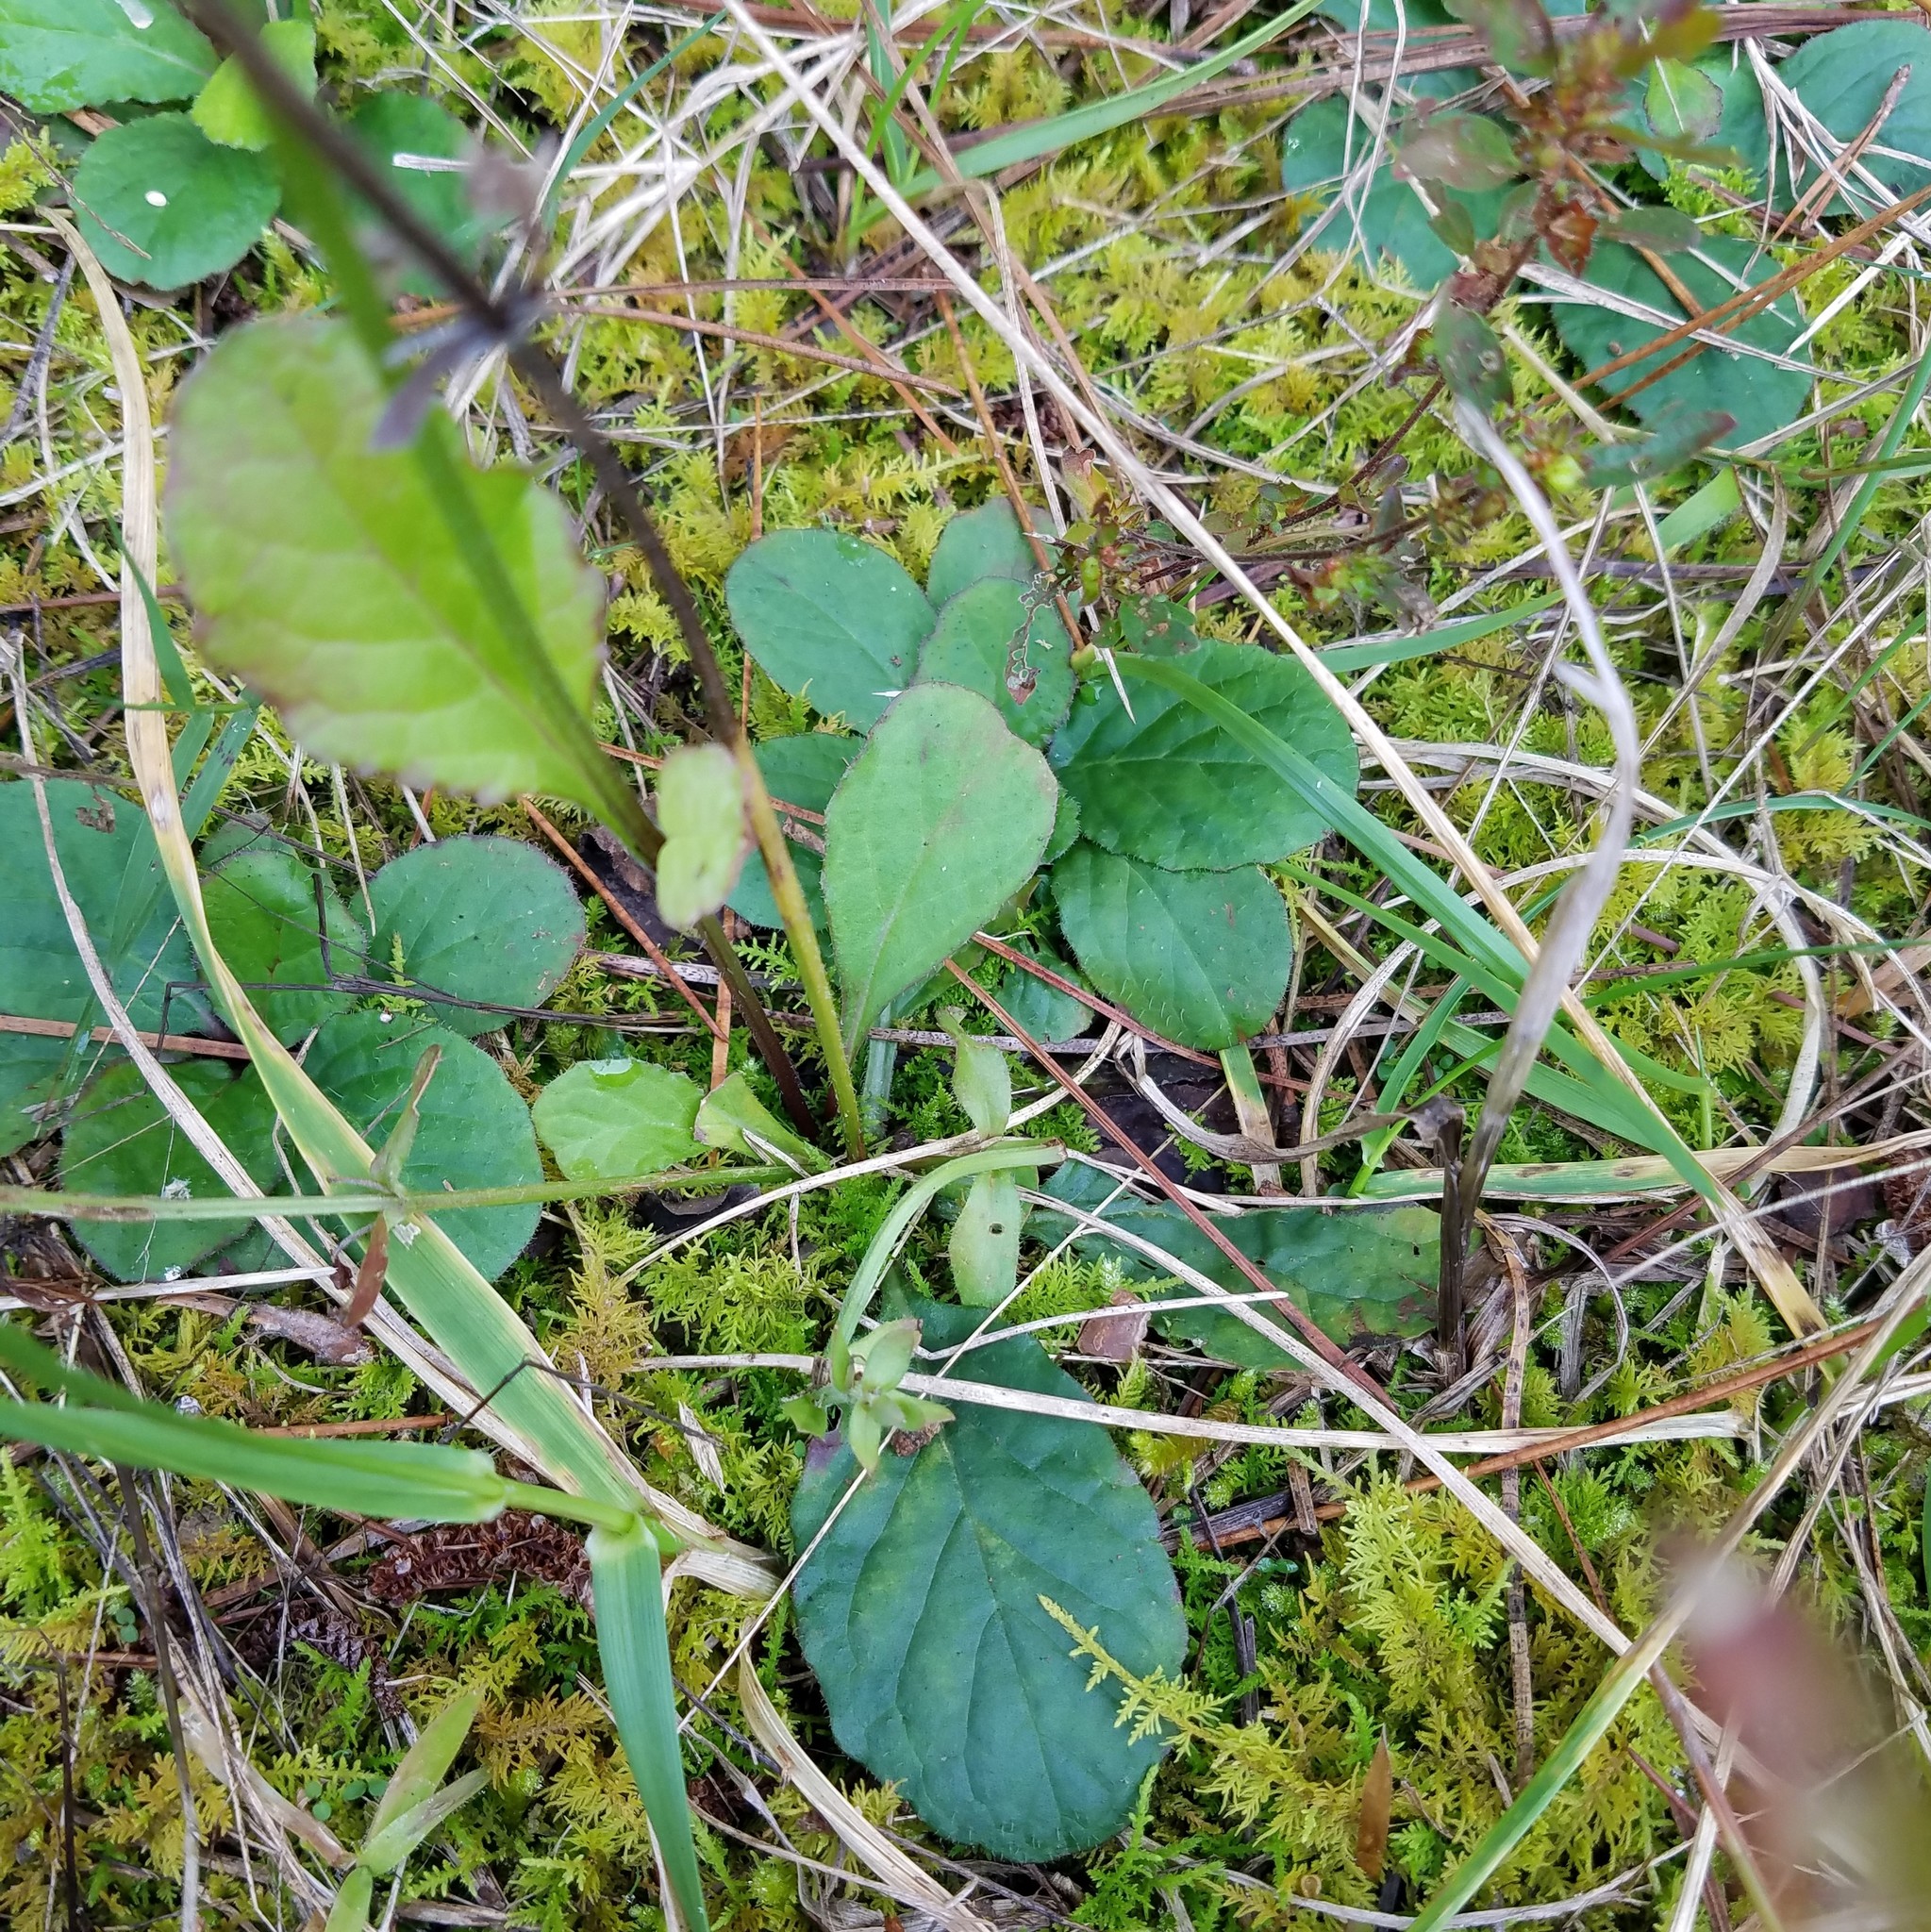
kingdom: Plantae
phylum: Tracheophyta
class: Magnoliopsida
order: Lamiales
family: Lamiaceae
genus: Salvia
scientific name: Salvia lyrata
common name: Cancerweed
